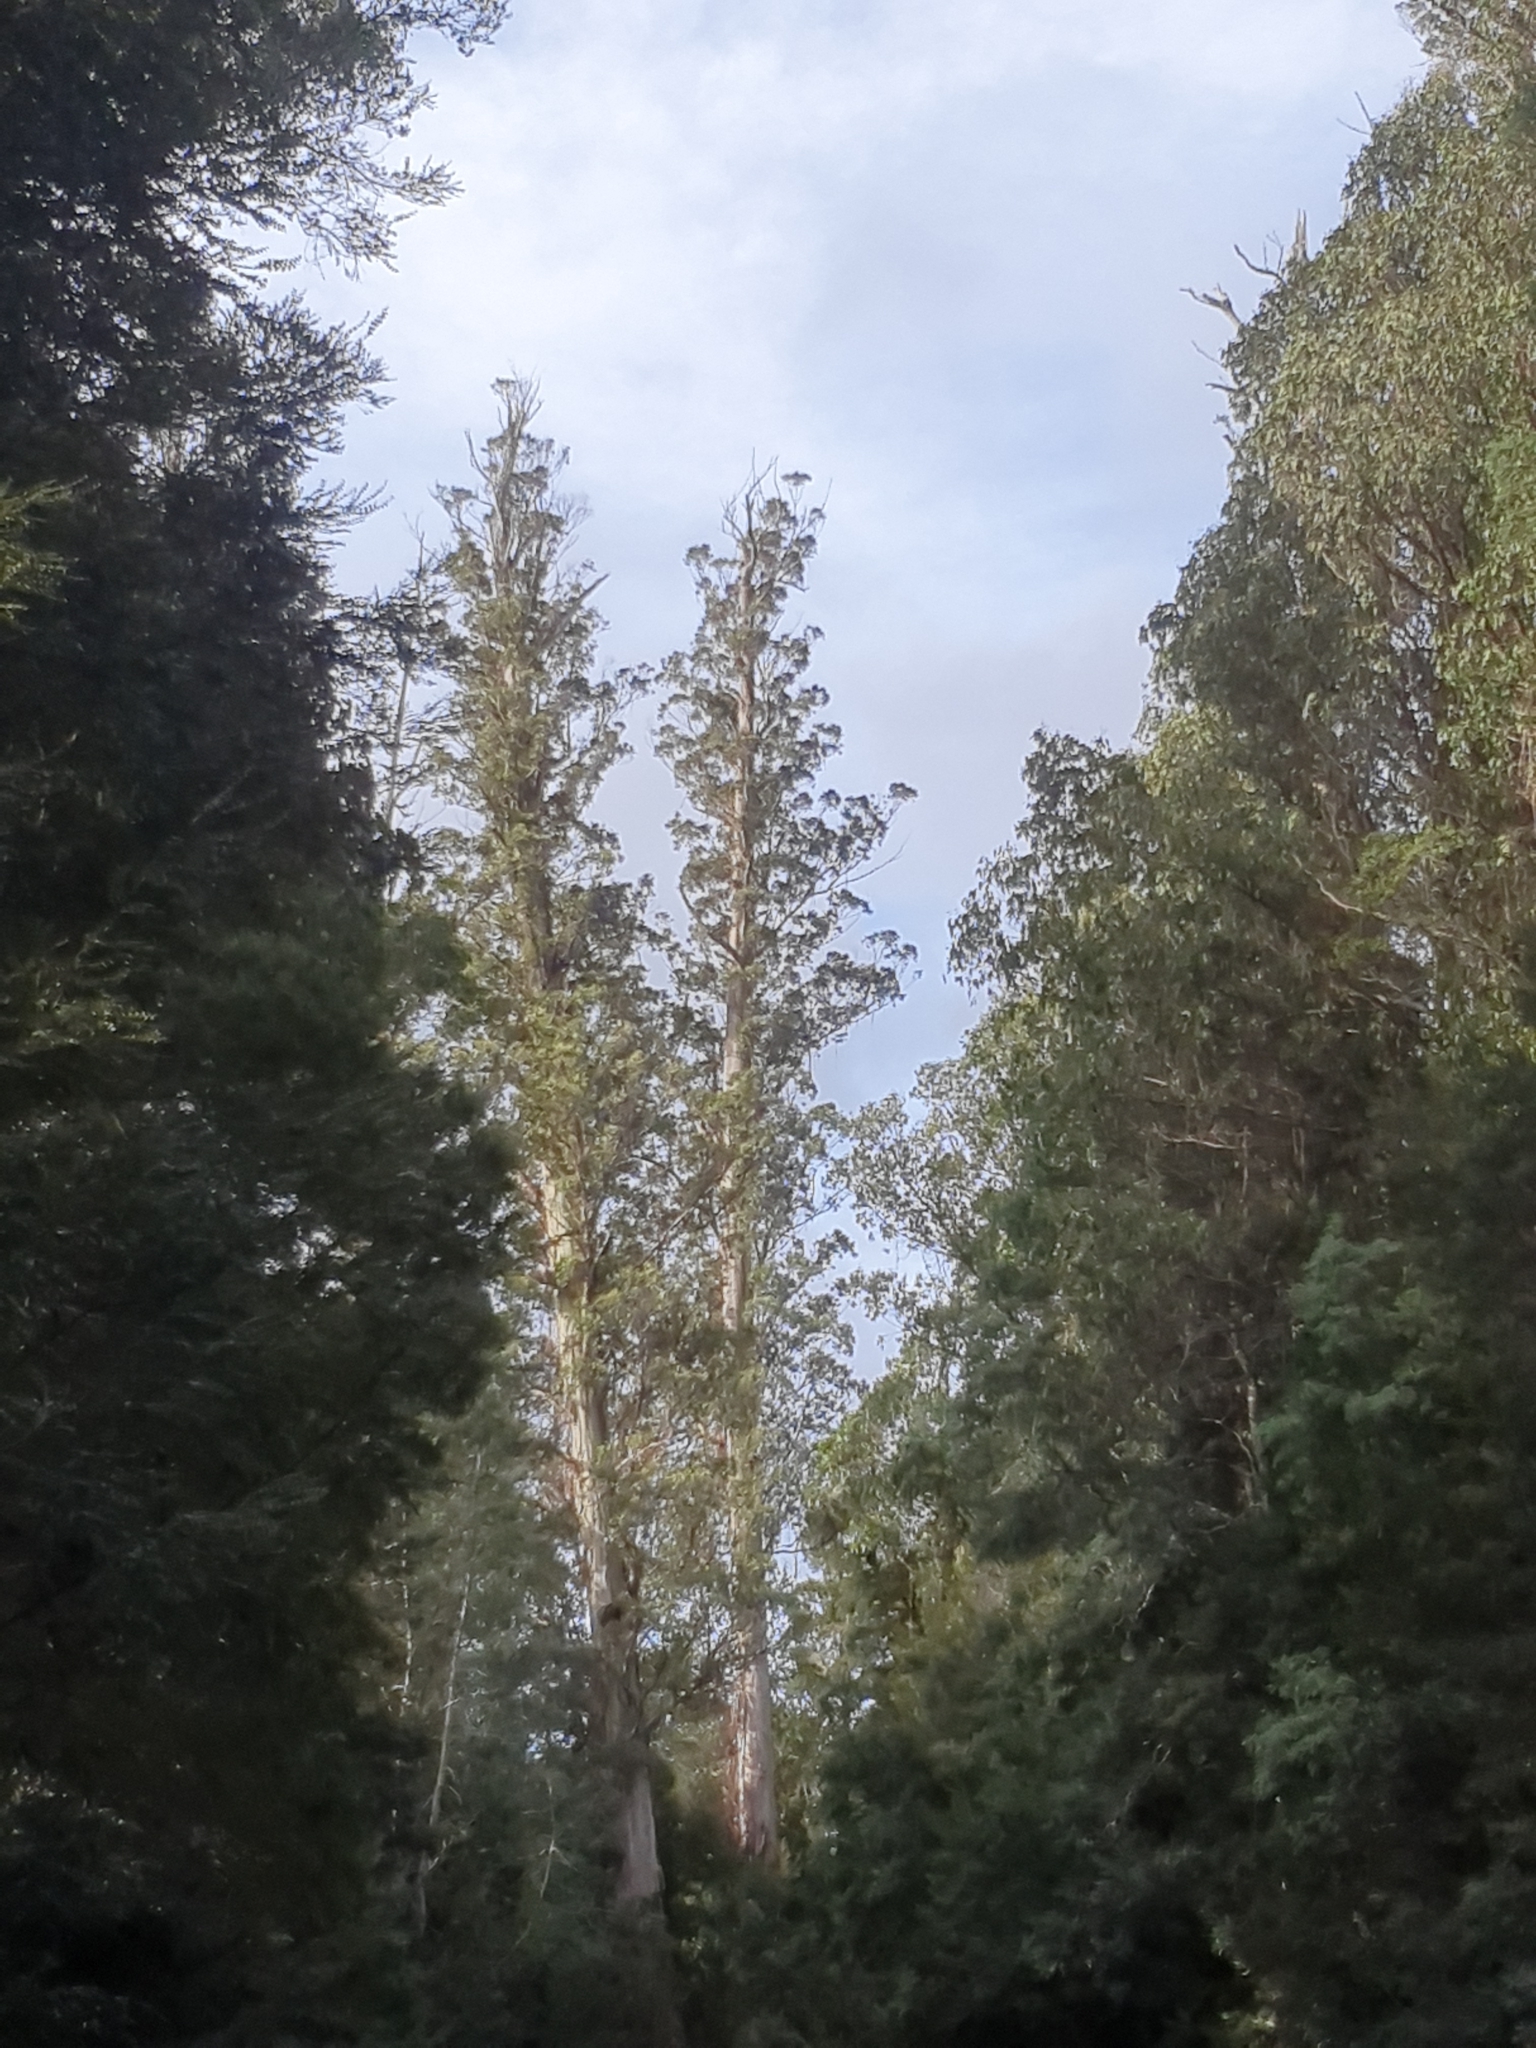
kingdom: Plantae
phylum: Tracheophyta
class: Magnoliopsida
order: Myrtales
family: Myrtaceae
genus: Eucalyptus
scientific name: Eucalyptus regnans
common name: Stringy gum
